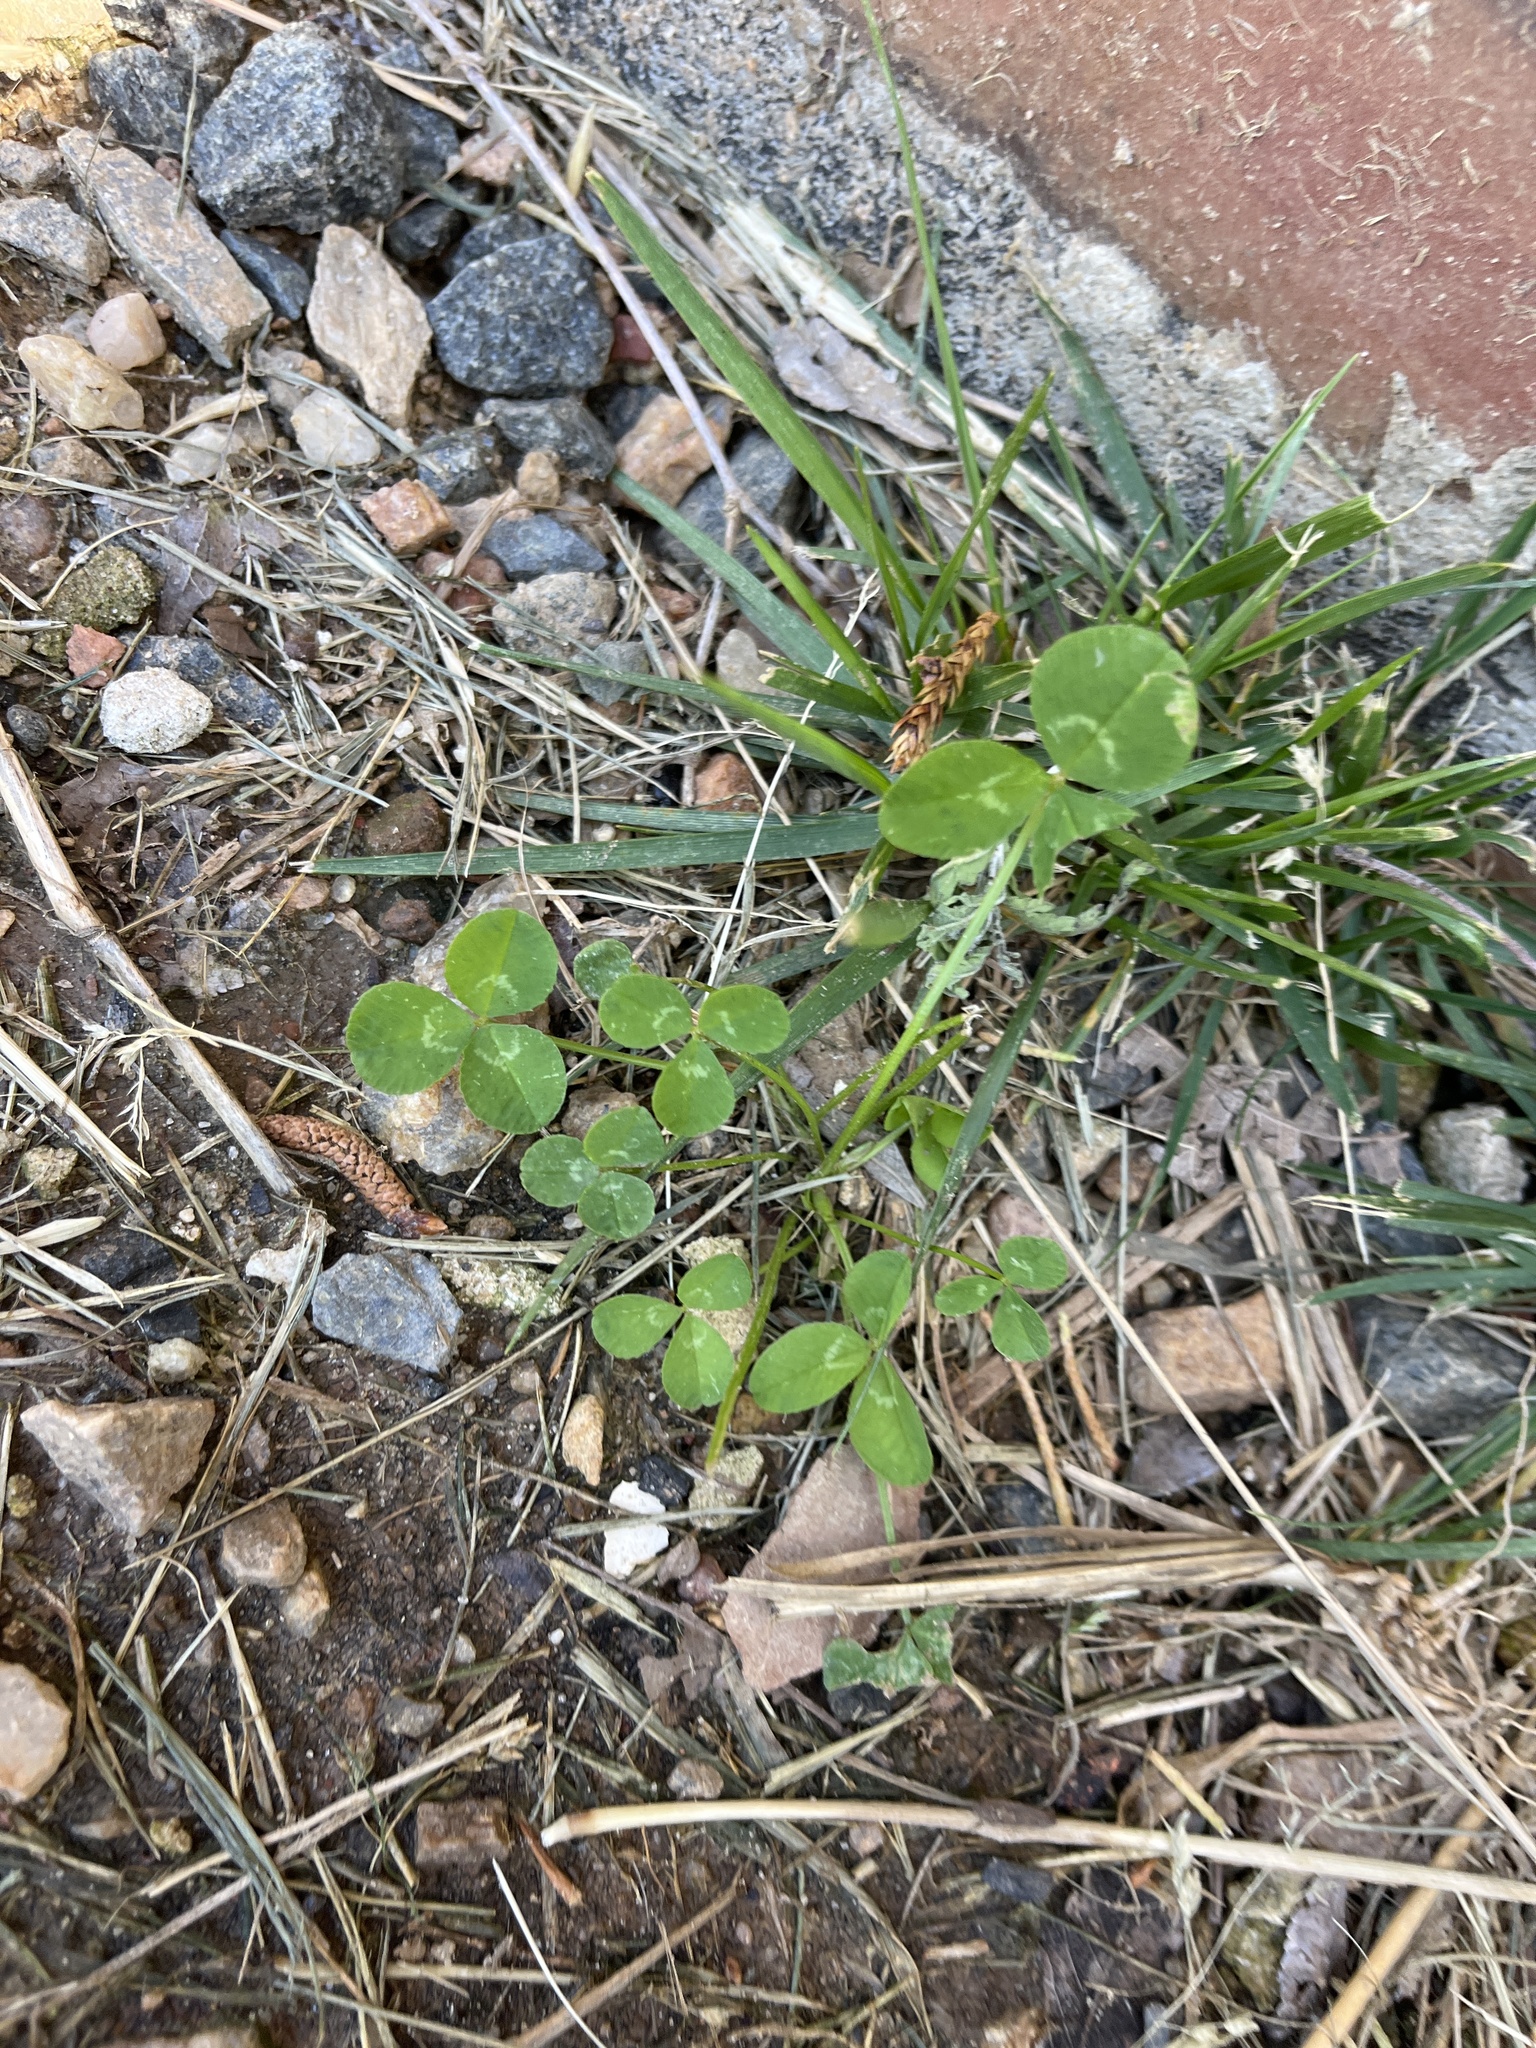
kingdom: Plantae
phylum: Tracheophyta
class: Magnoliopsida
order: Fabales
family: Fabaceae
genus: Trifolium
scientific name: Trifolium repens
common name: White clover
